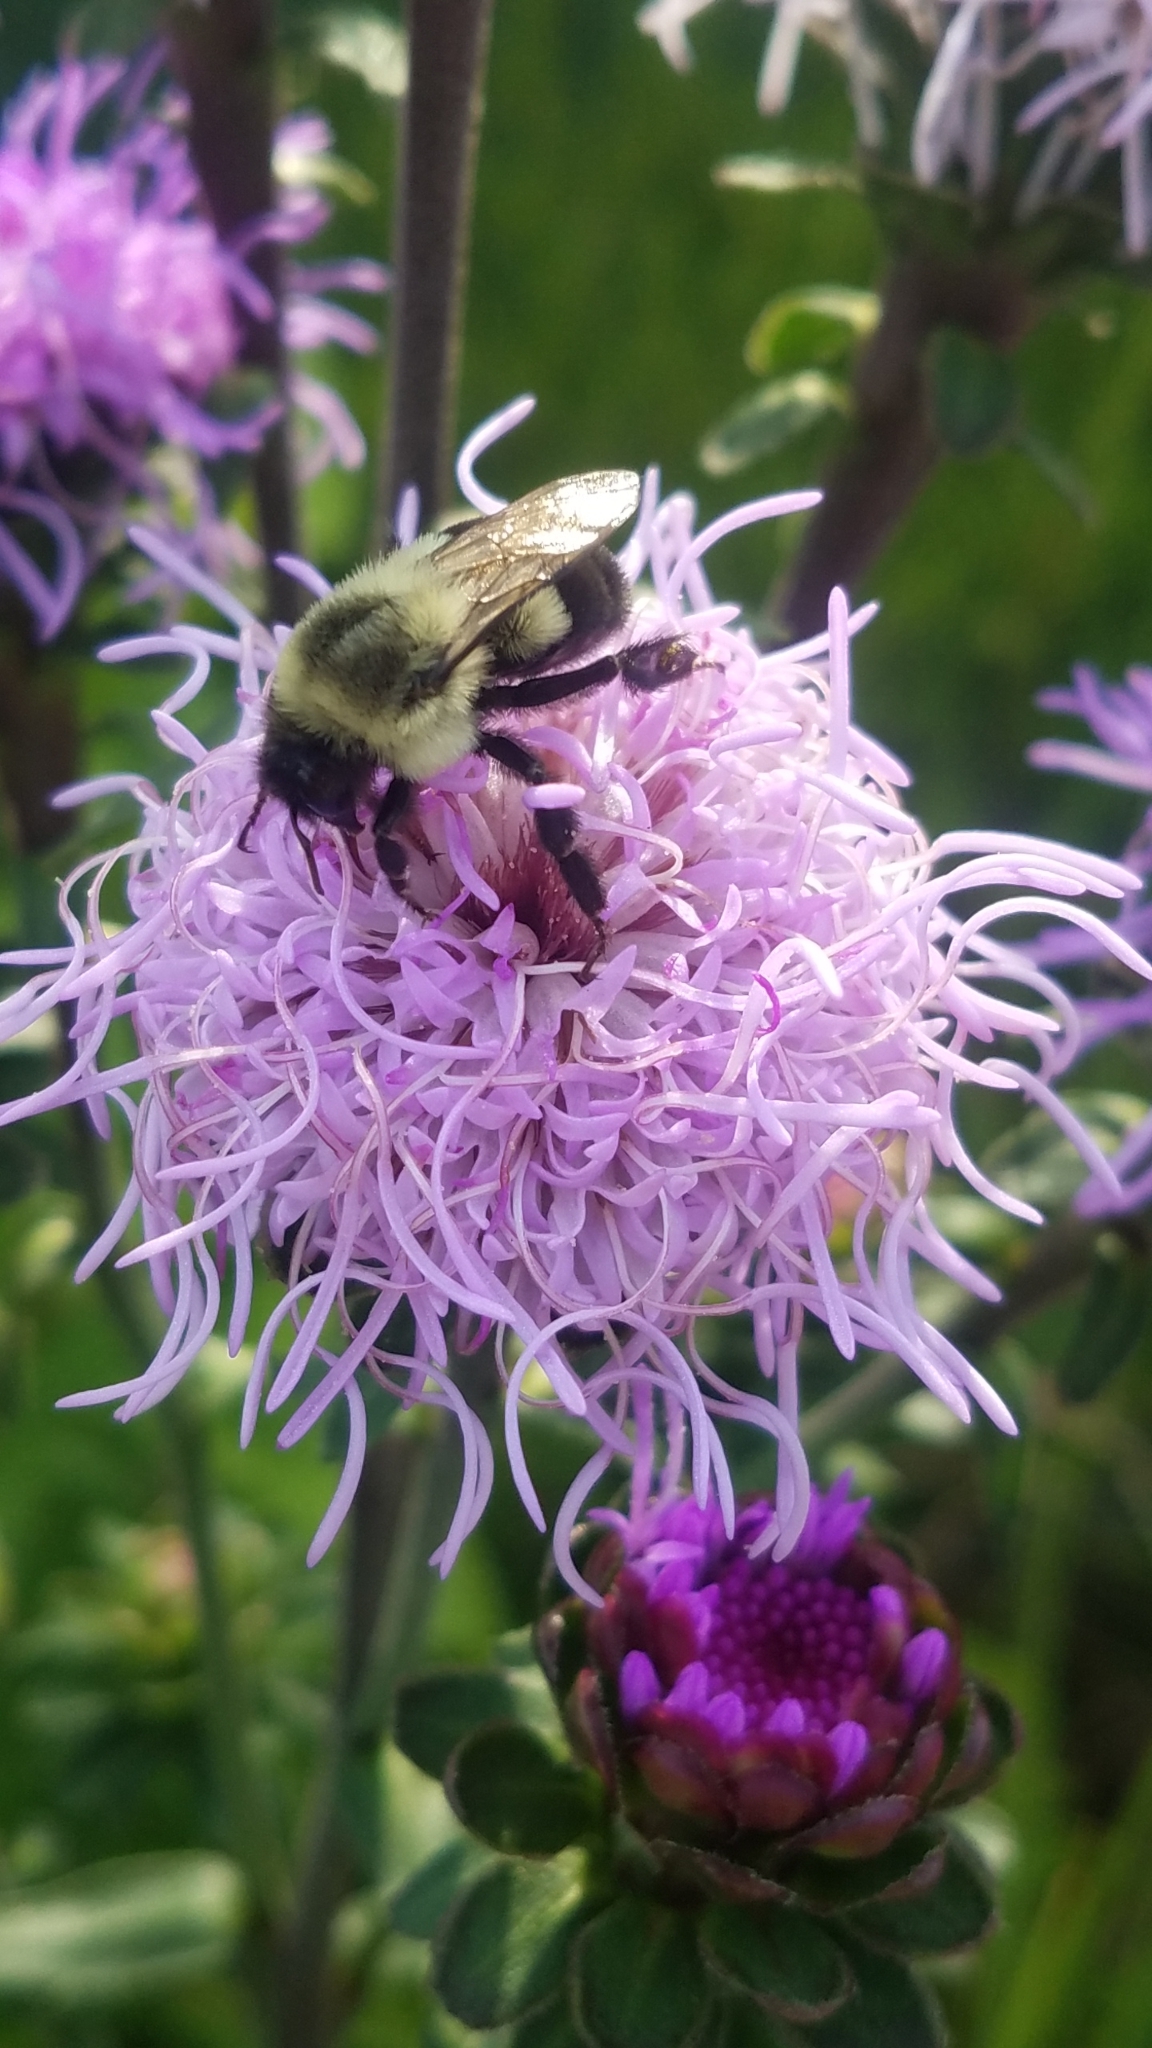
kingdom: Animalia
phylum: Arthropoda
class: Insecta
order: Hymenoptera
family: Apidae
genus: Bombus
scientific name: Bombus impatiens
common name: Common eastern bumble bee
